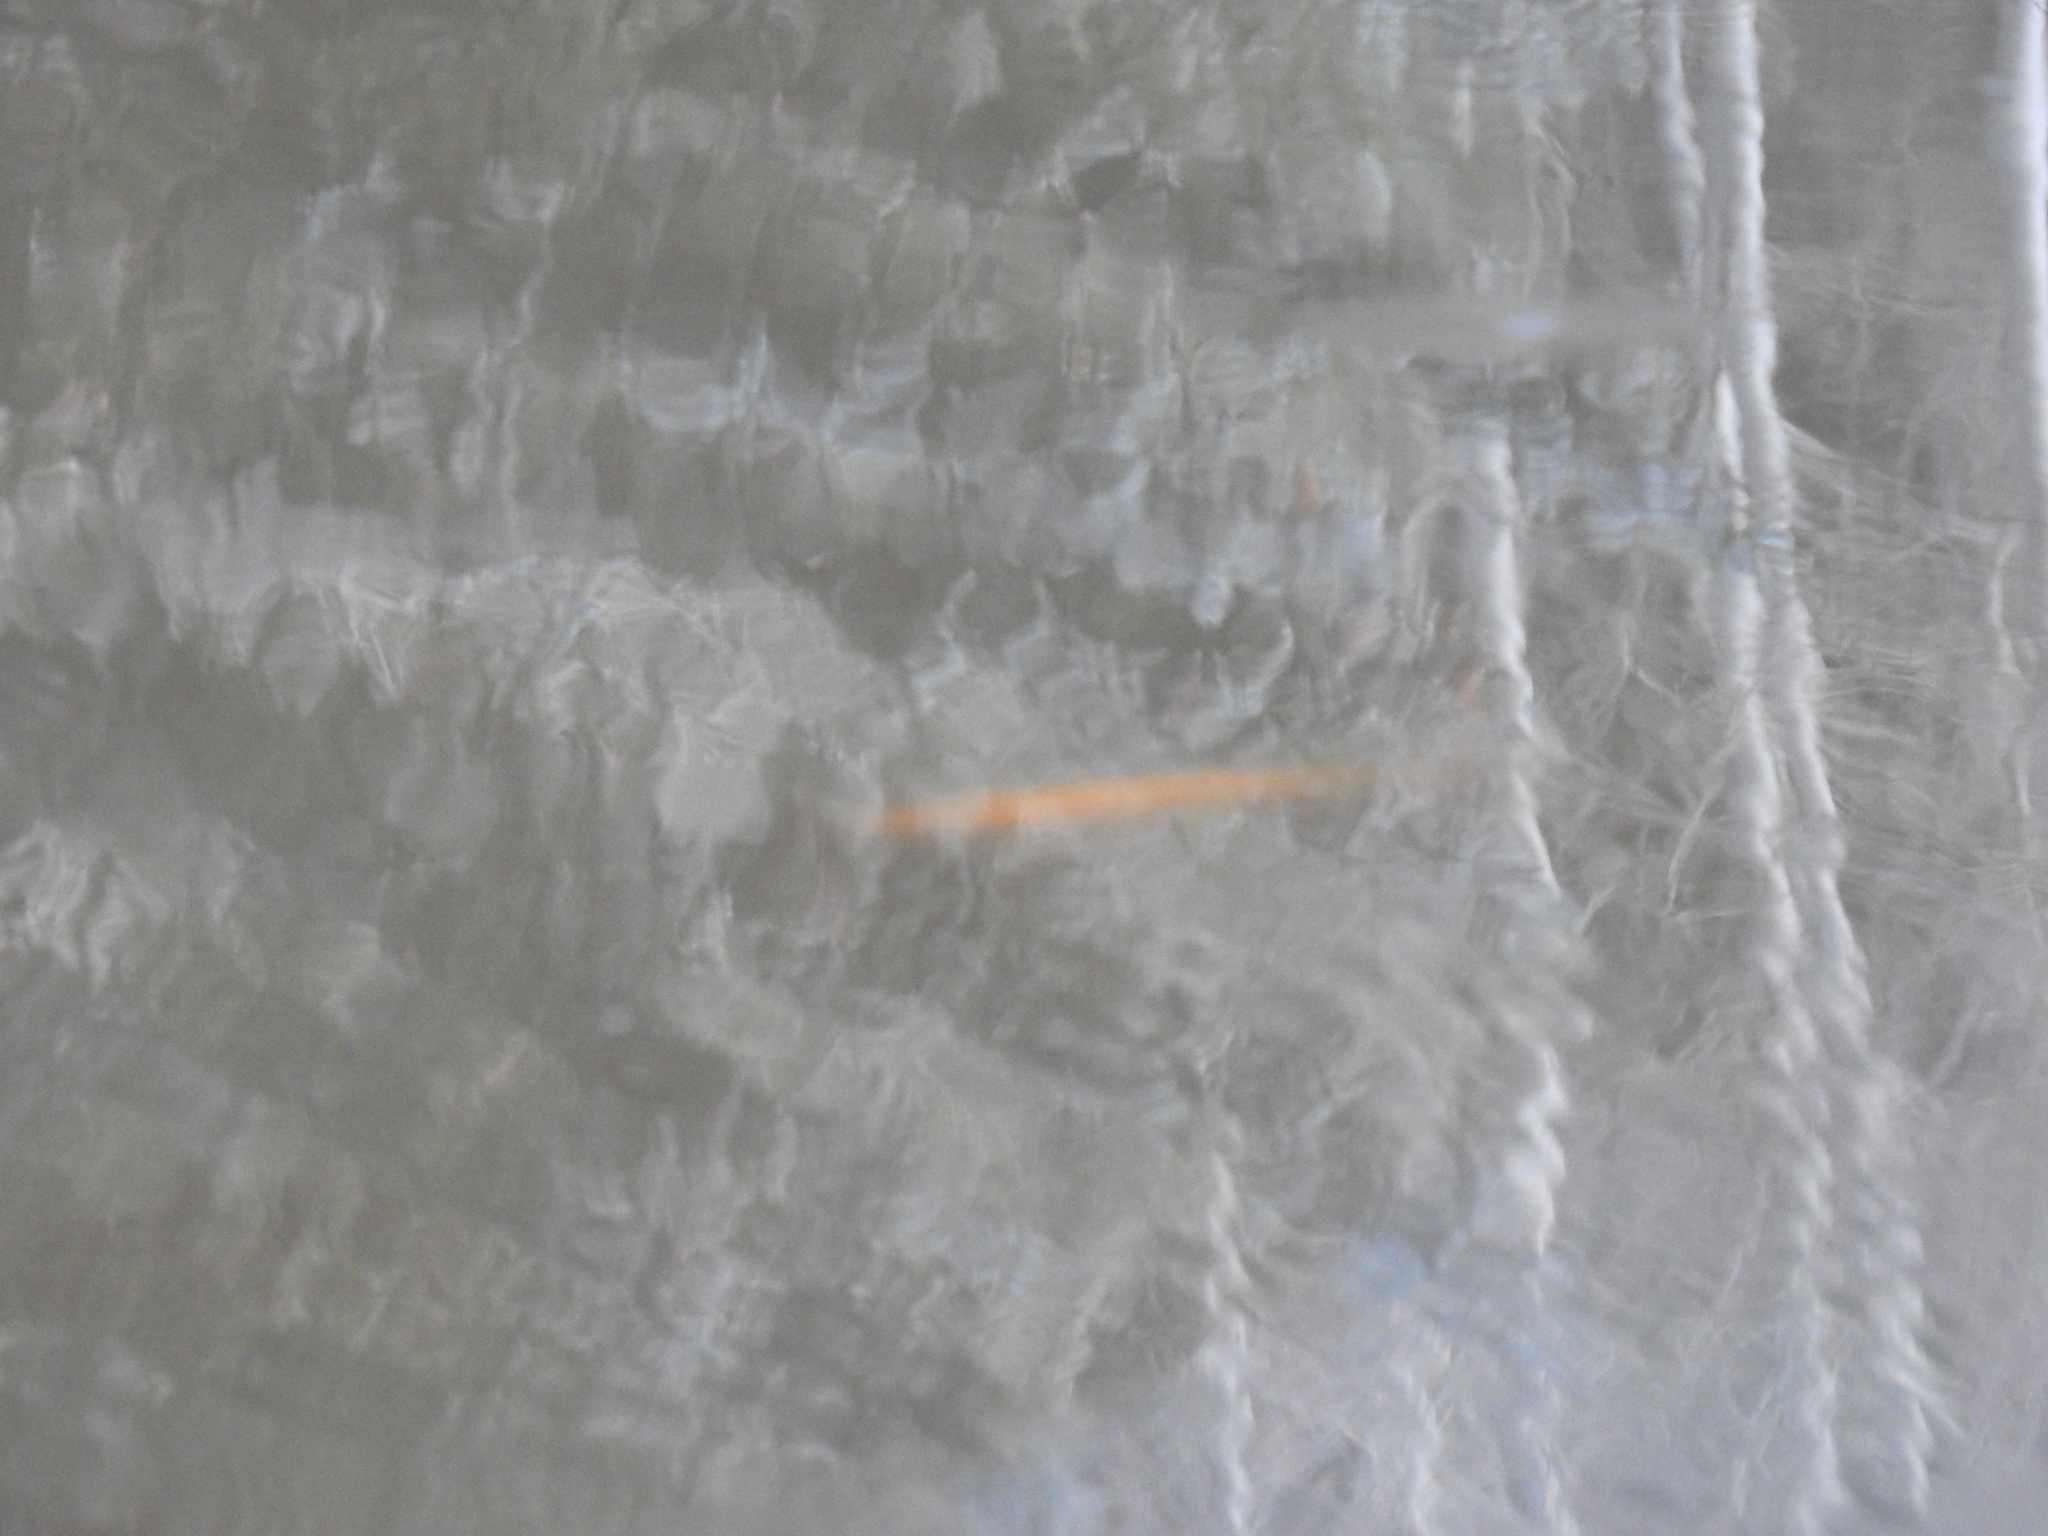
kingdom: Animalia
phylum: Chordata
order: Cypriniformes
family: Cyprinidae
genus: Cyprinus
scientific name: Cyprinus rubrofuscus
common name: Koi
